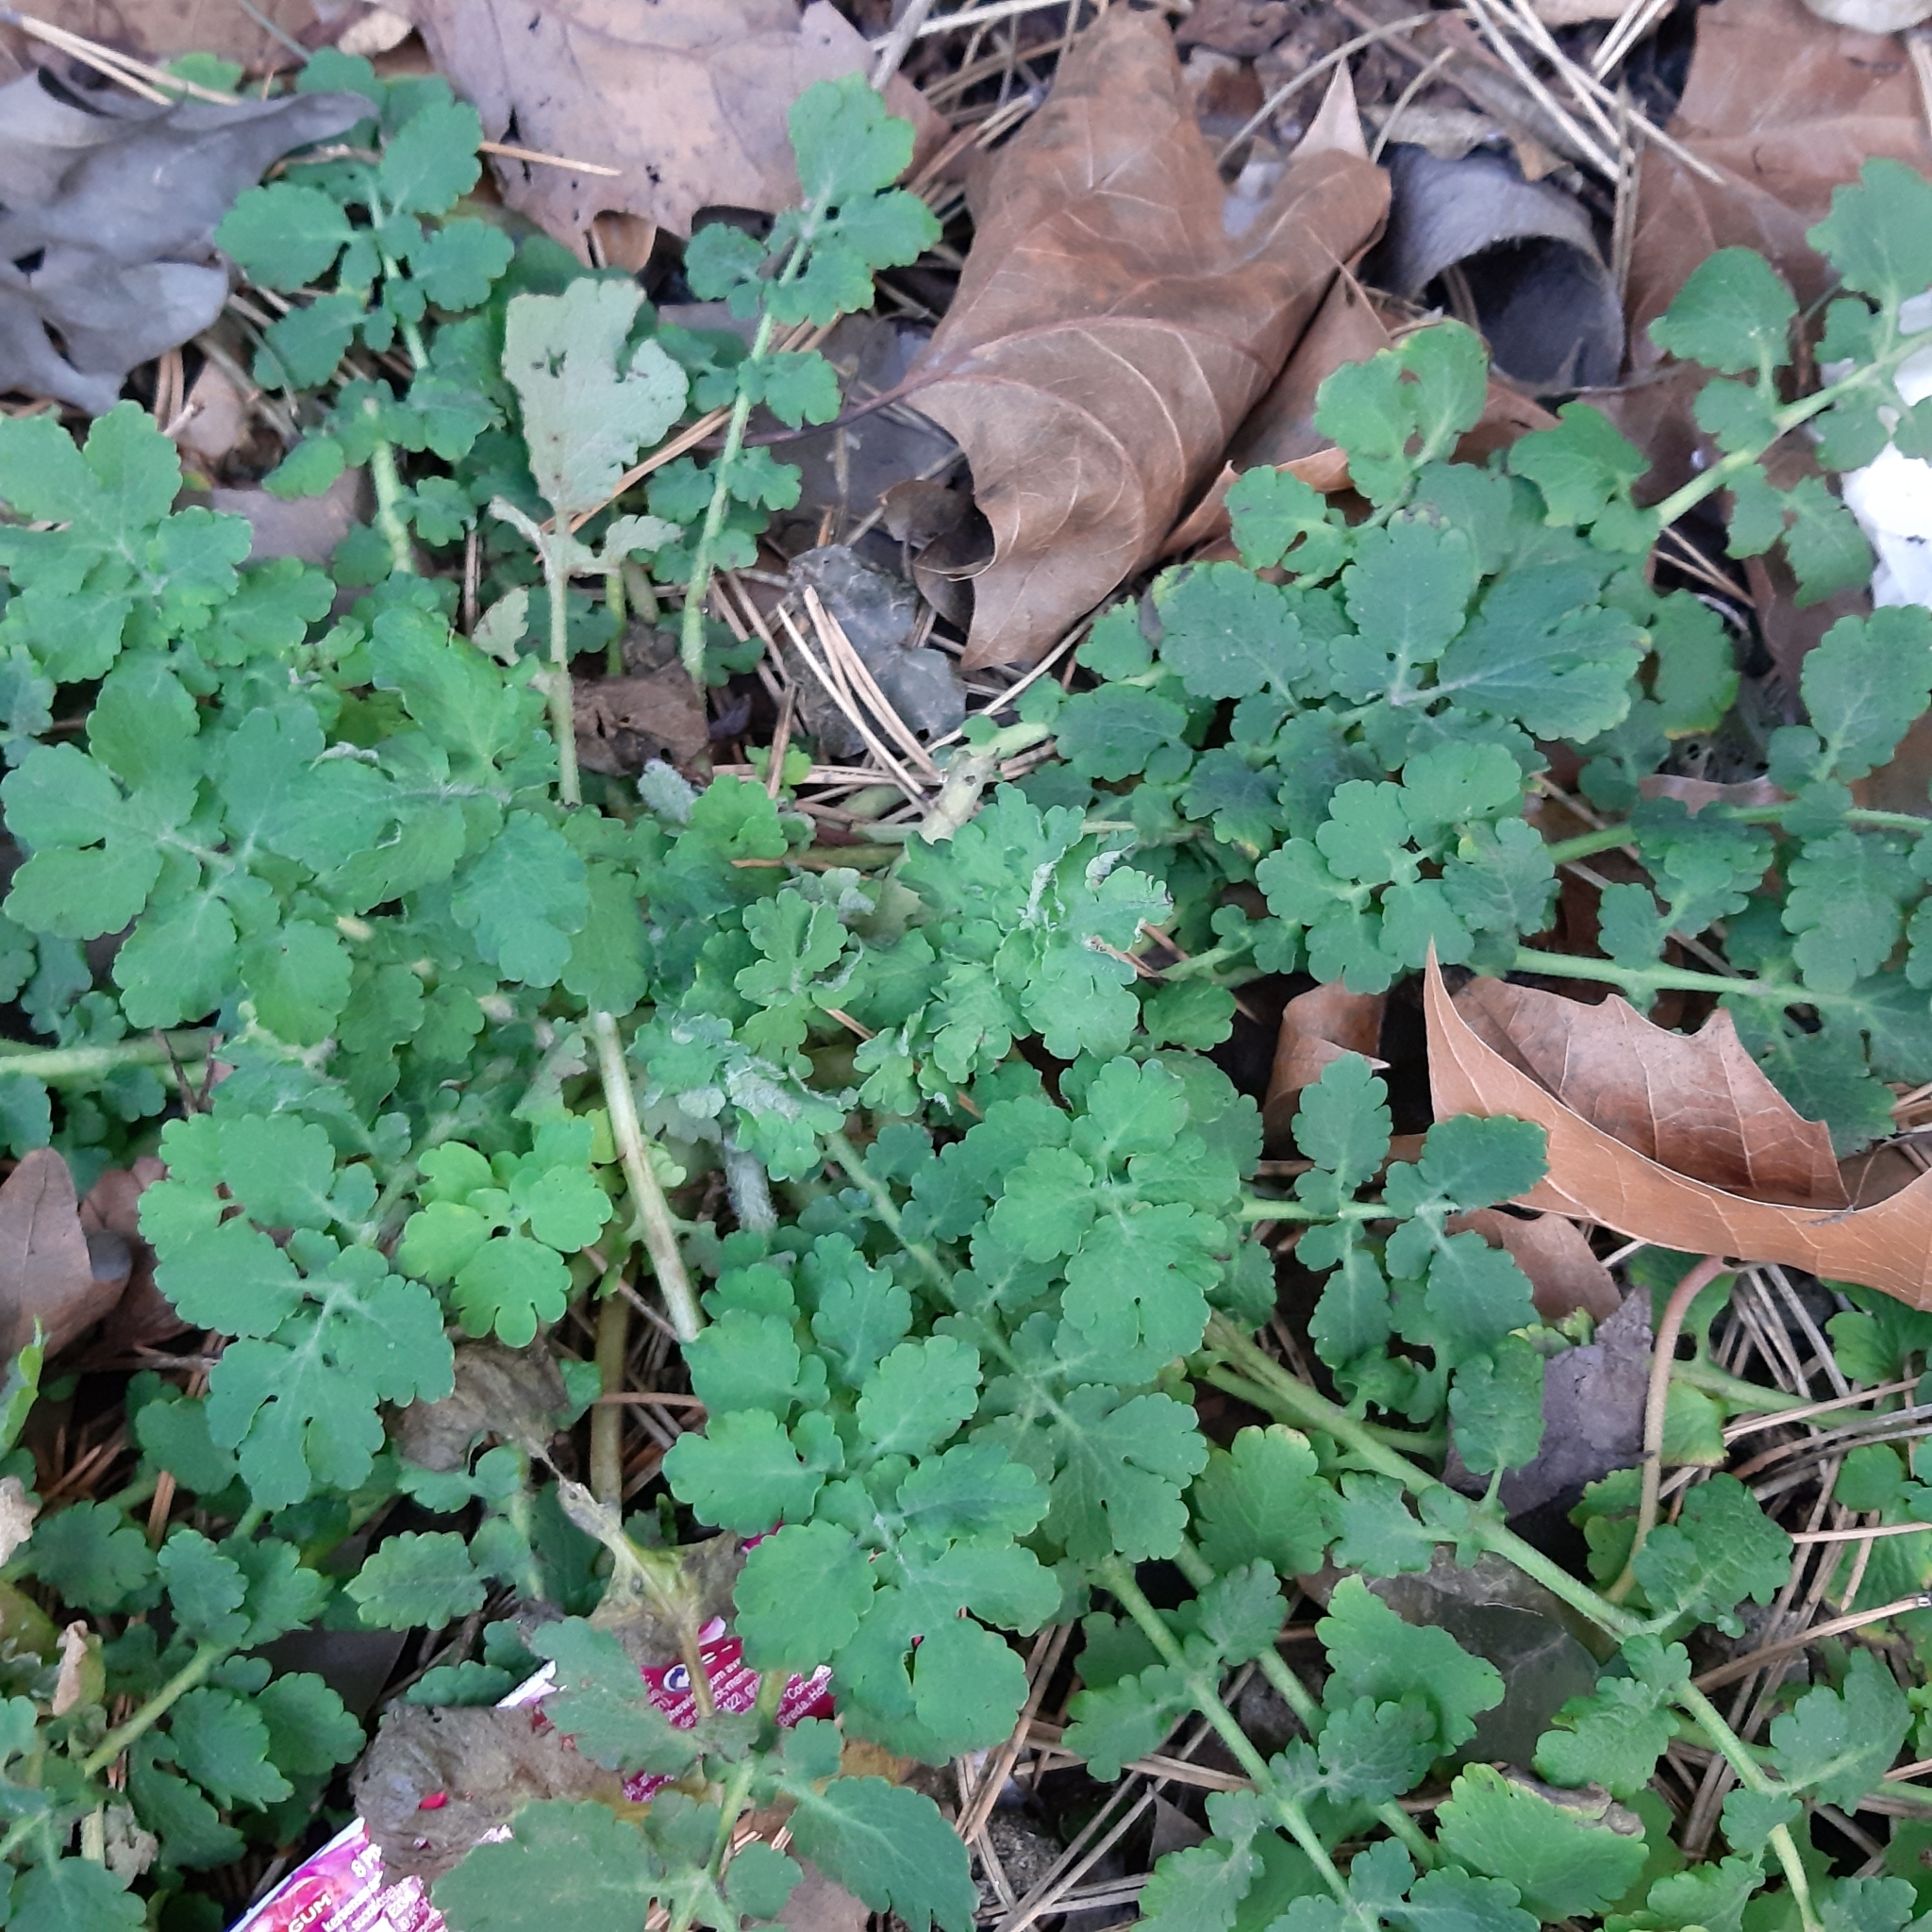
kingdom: Plantae
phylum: Tracheophyta
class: Magnoliopsida
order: Ranunculales
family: Papaveraceae
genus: Chelidonium
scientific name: Chelidonium majus
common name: Greater celandine
